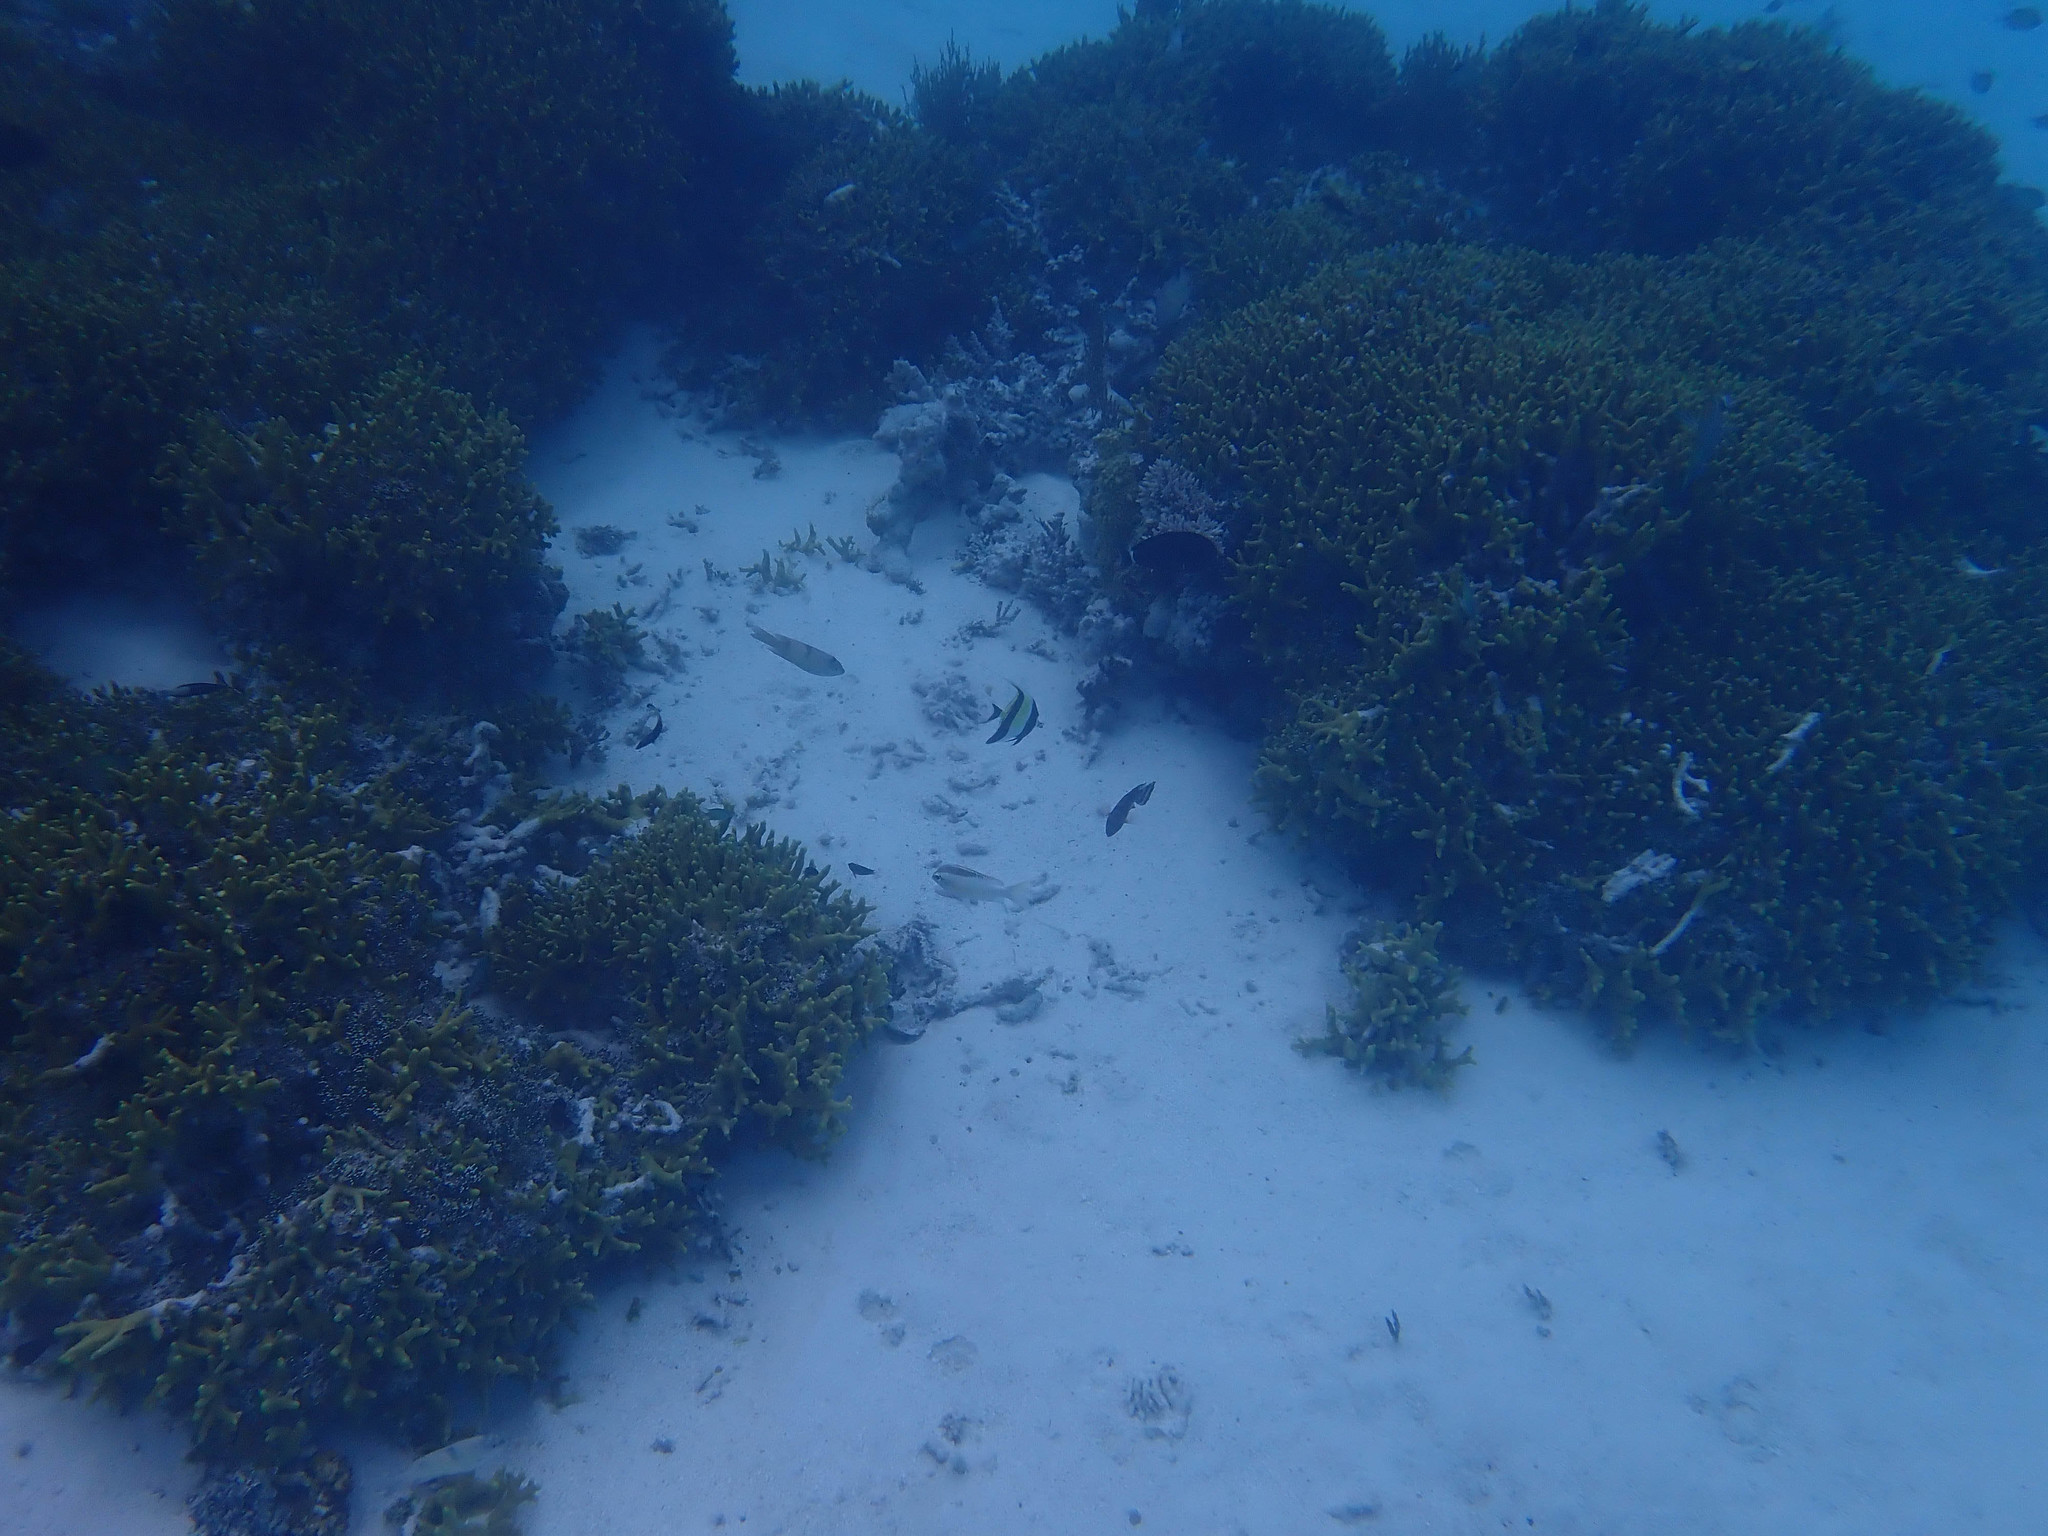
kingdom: Animalia
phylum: Chordata
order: Perciformes
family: Zanclidae
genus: Zanclus
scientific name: Zanclus cornutus
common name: Moorish idol
